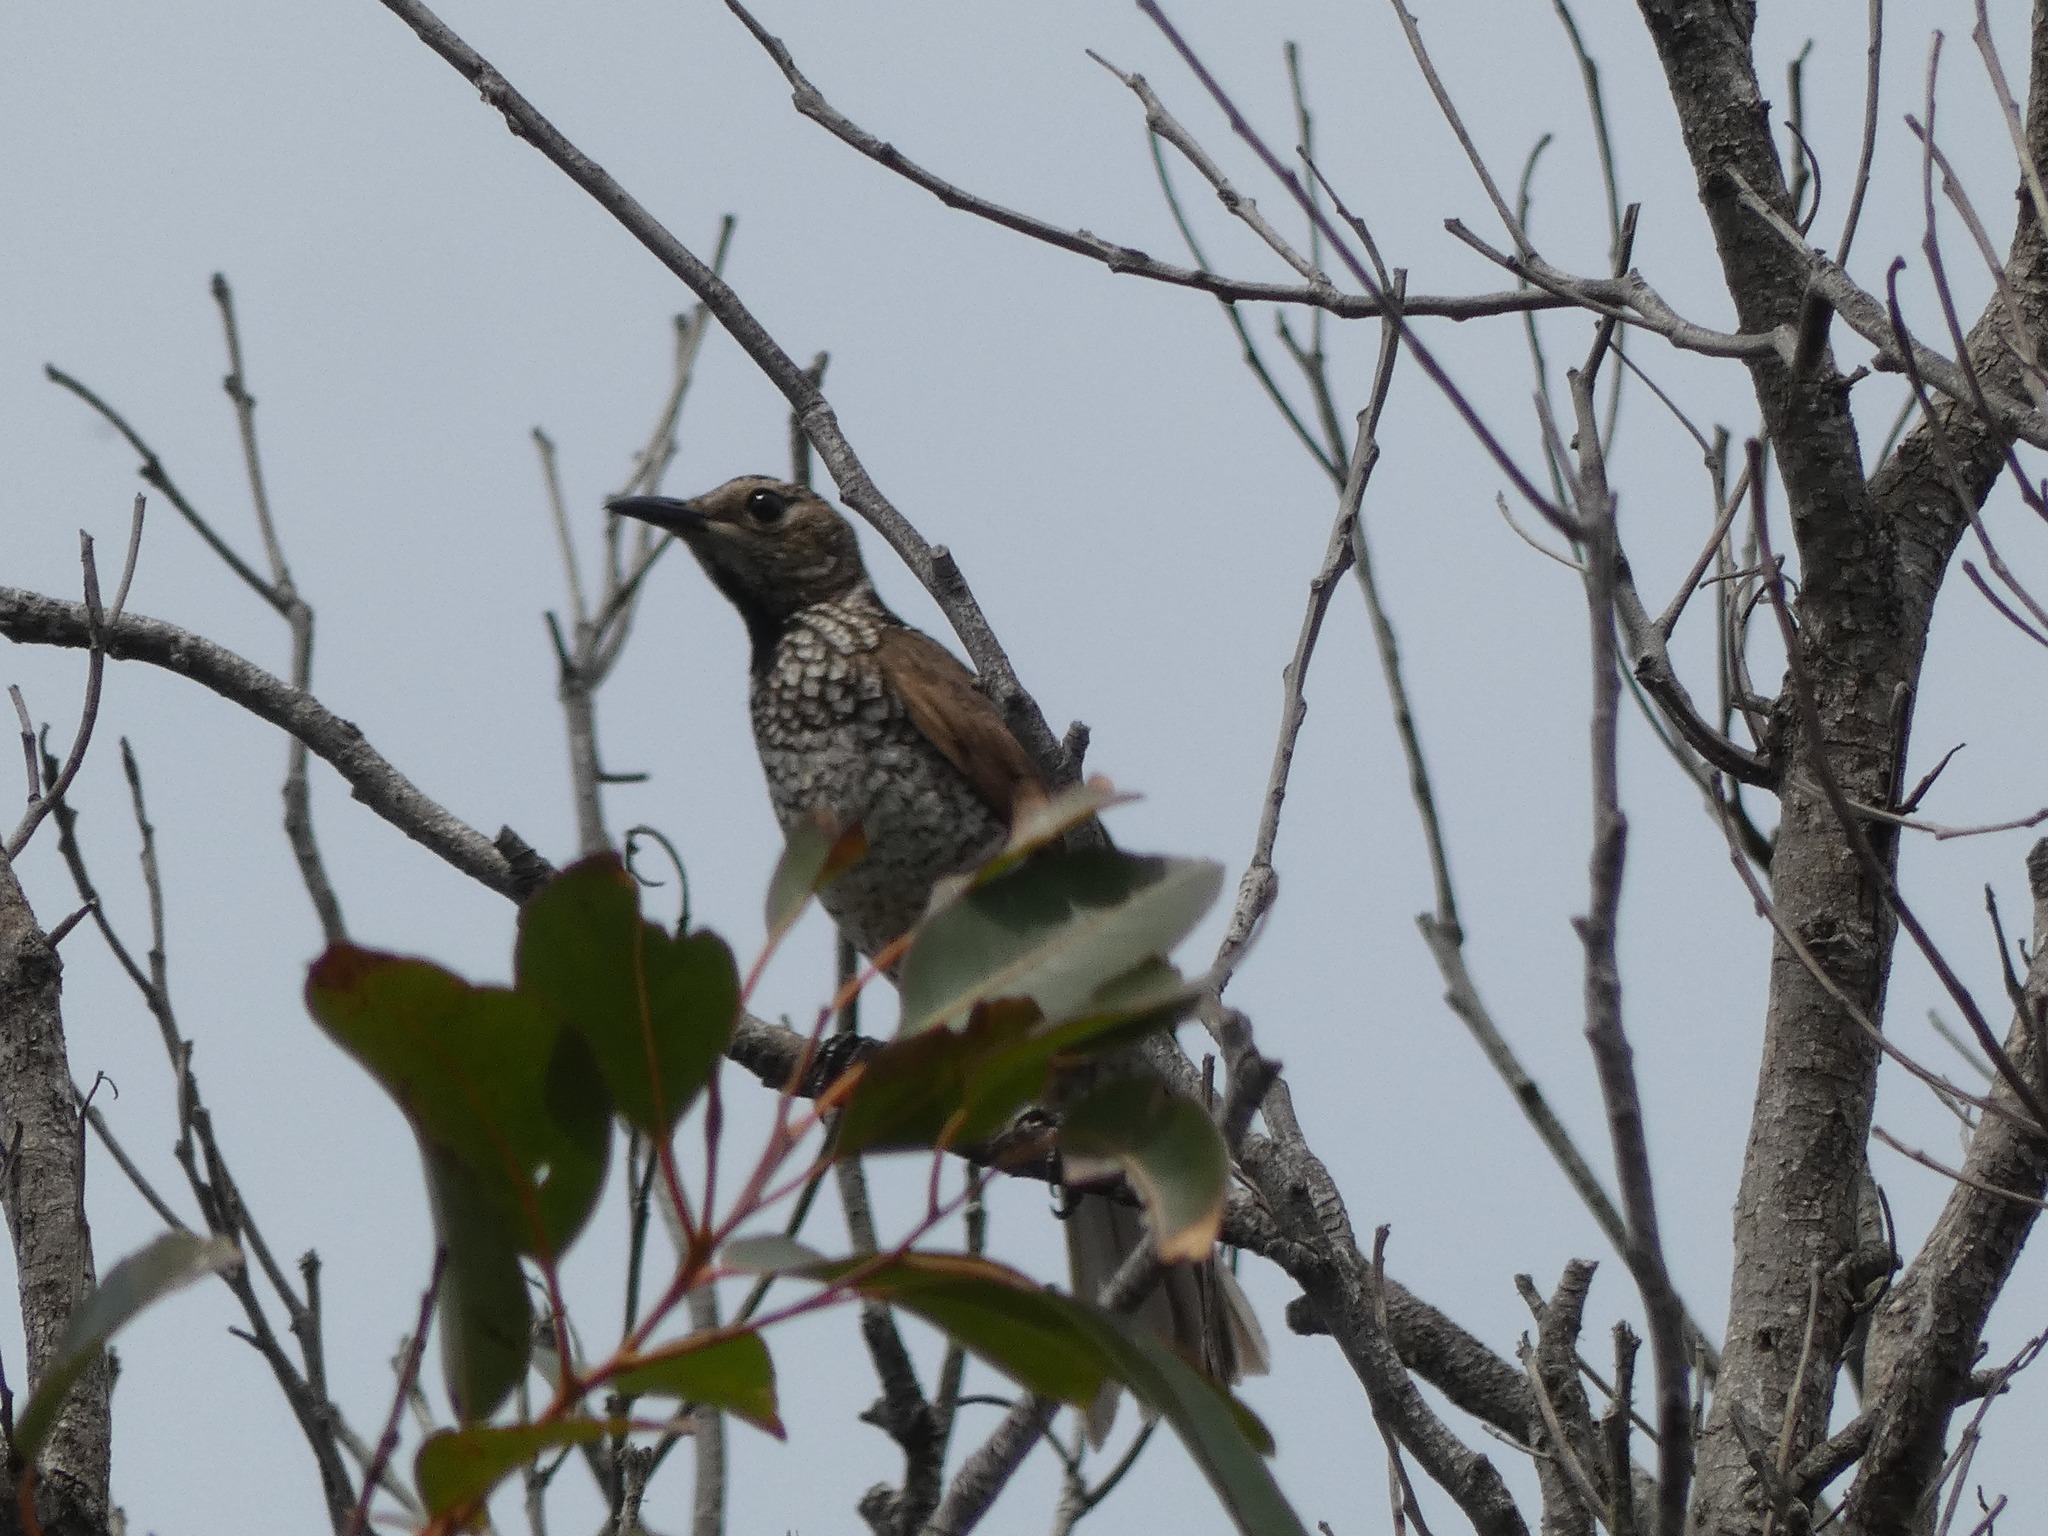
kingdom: Animalia
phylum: Chordata
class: Aves
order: Passeriformes
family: Ptilonorhynchidae
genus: Sericulus
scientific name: Sericulus chrysocephalus
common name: Regent bowerbird
